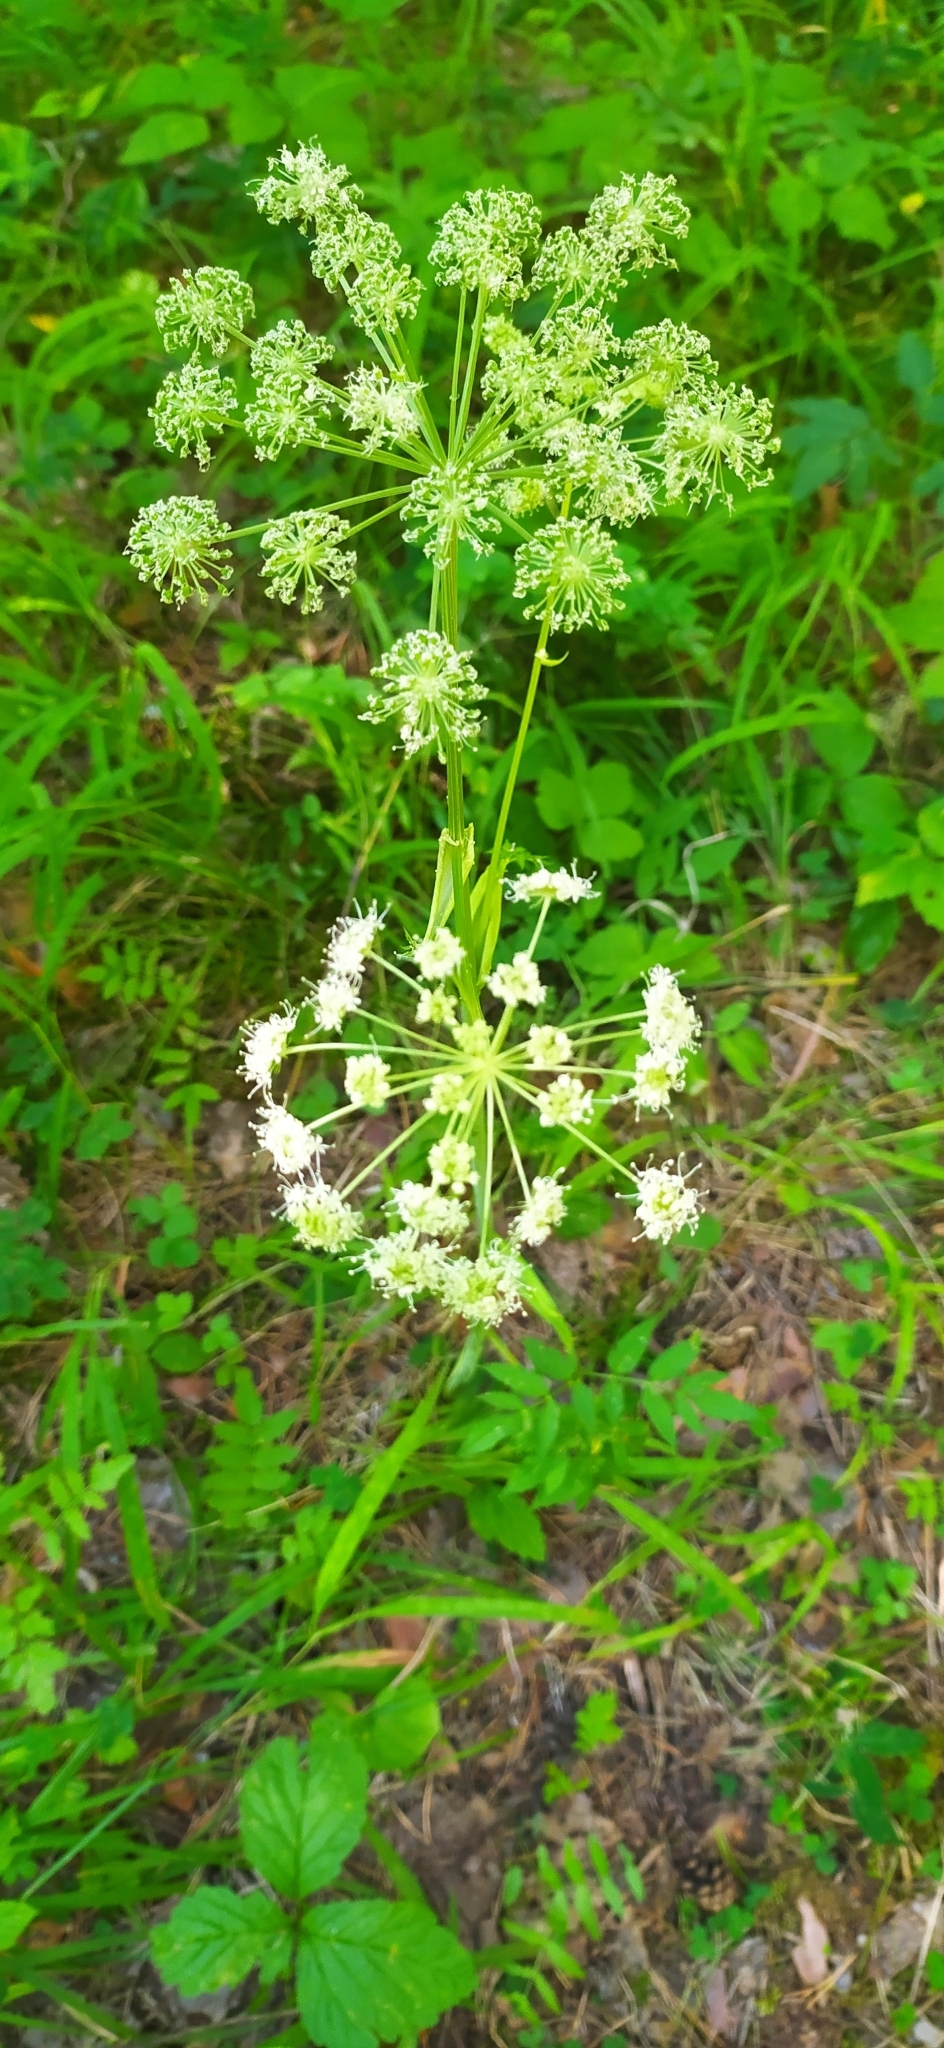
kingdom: Plantae
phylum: Tracheophyta
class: Magnoliopsida
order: Apiales
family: Apiaceae
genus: Angelica
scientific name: Angelica sylvestris
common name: Wild angelica
